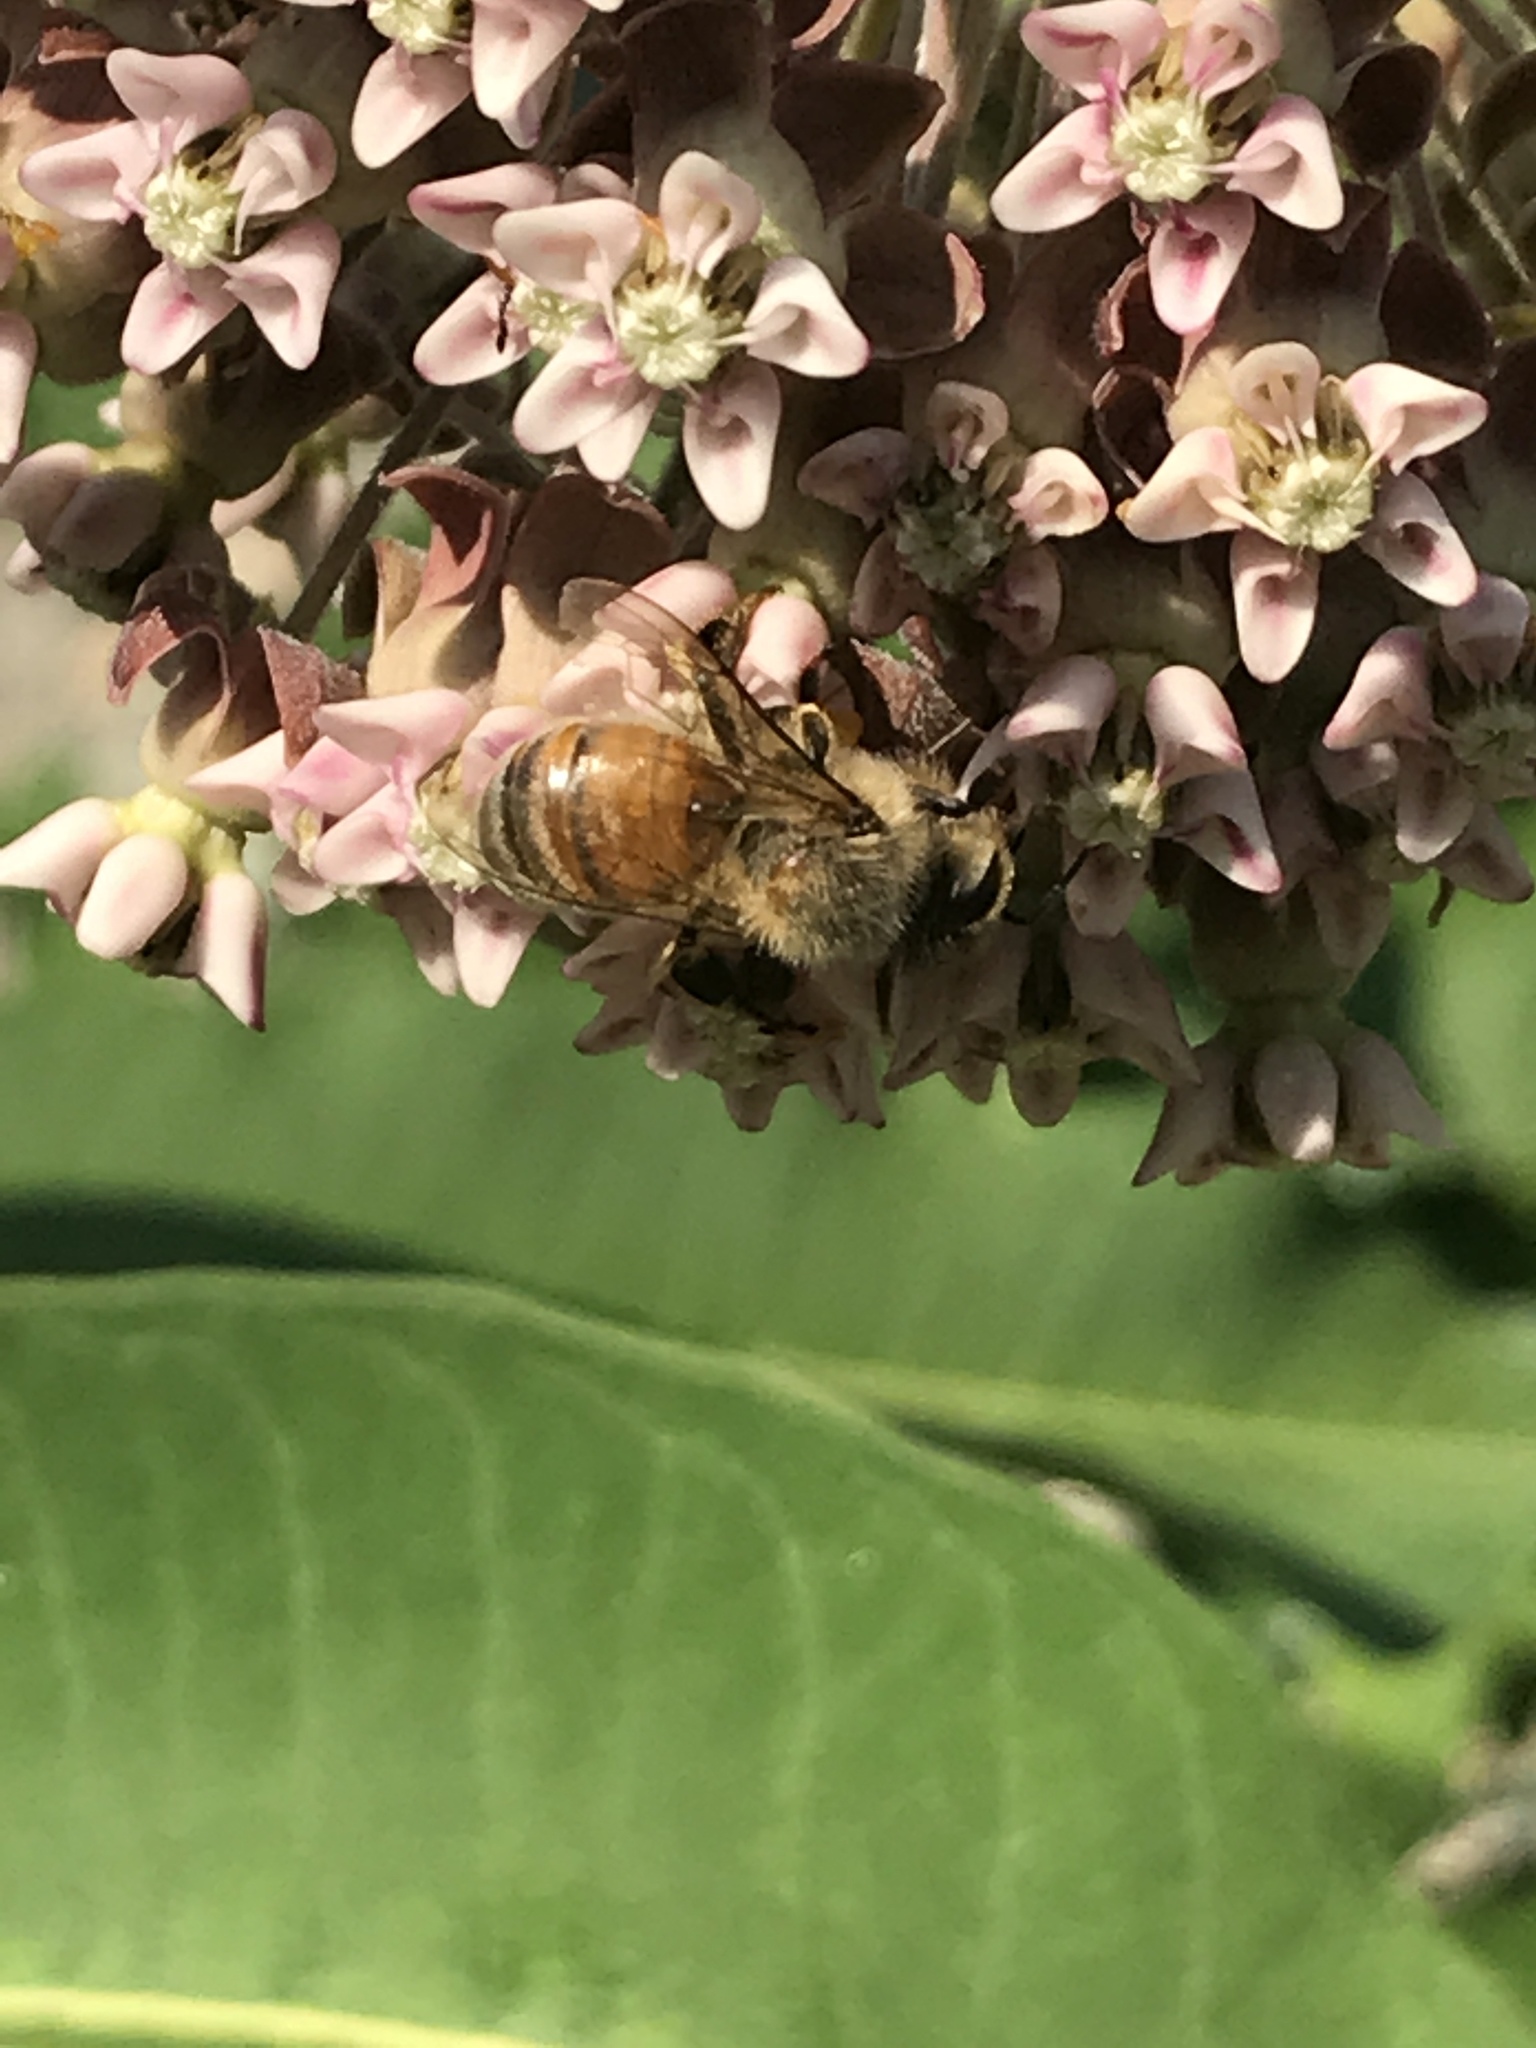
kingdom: Animalia
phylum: Arthropoda
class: Insecta
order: Hymenoptera
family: Apidae
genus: Apis
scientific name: Apis mellifera
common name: Honey bee
